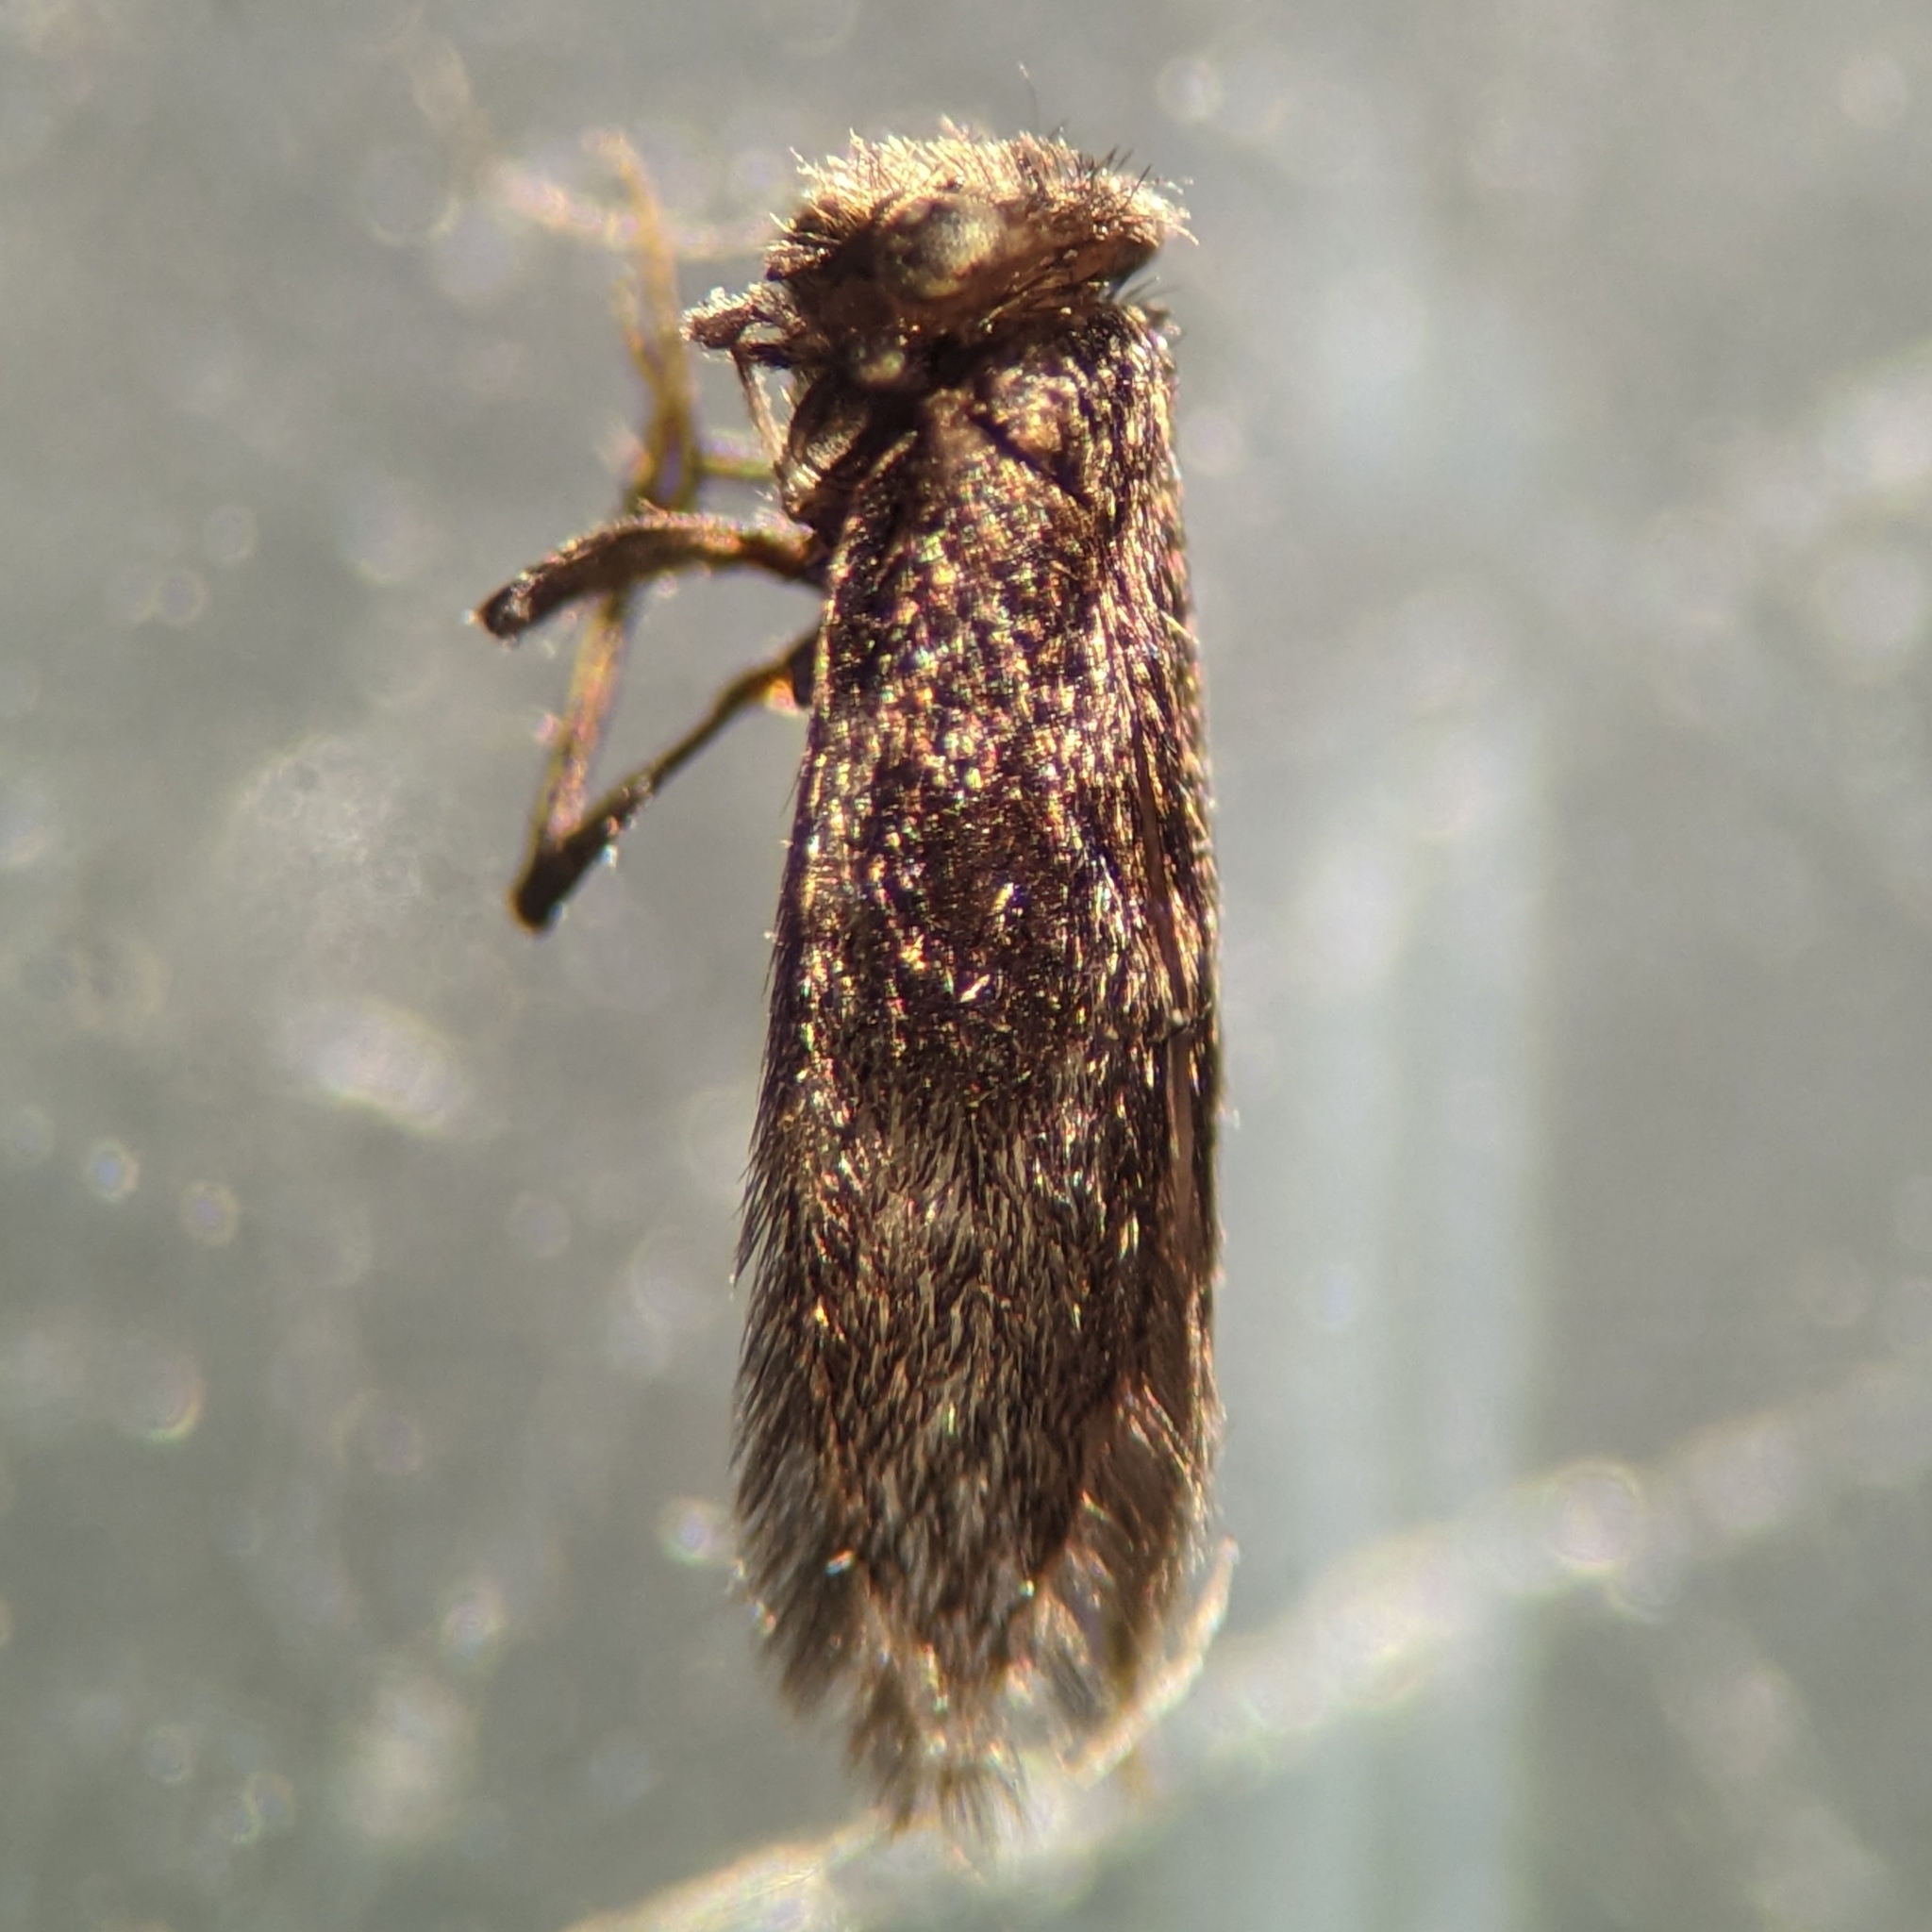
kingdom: Animalia
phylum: Arthropoda
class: Insecta
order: Psocodea
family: Lepidopsocidae
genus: Echmepteryx
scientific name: Echmepteryx hageni
